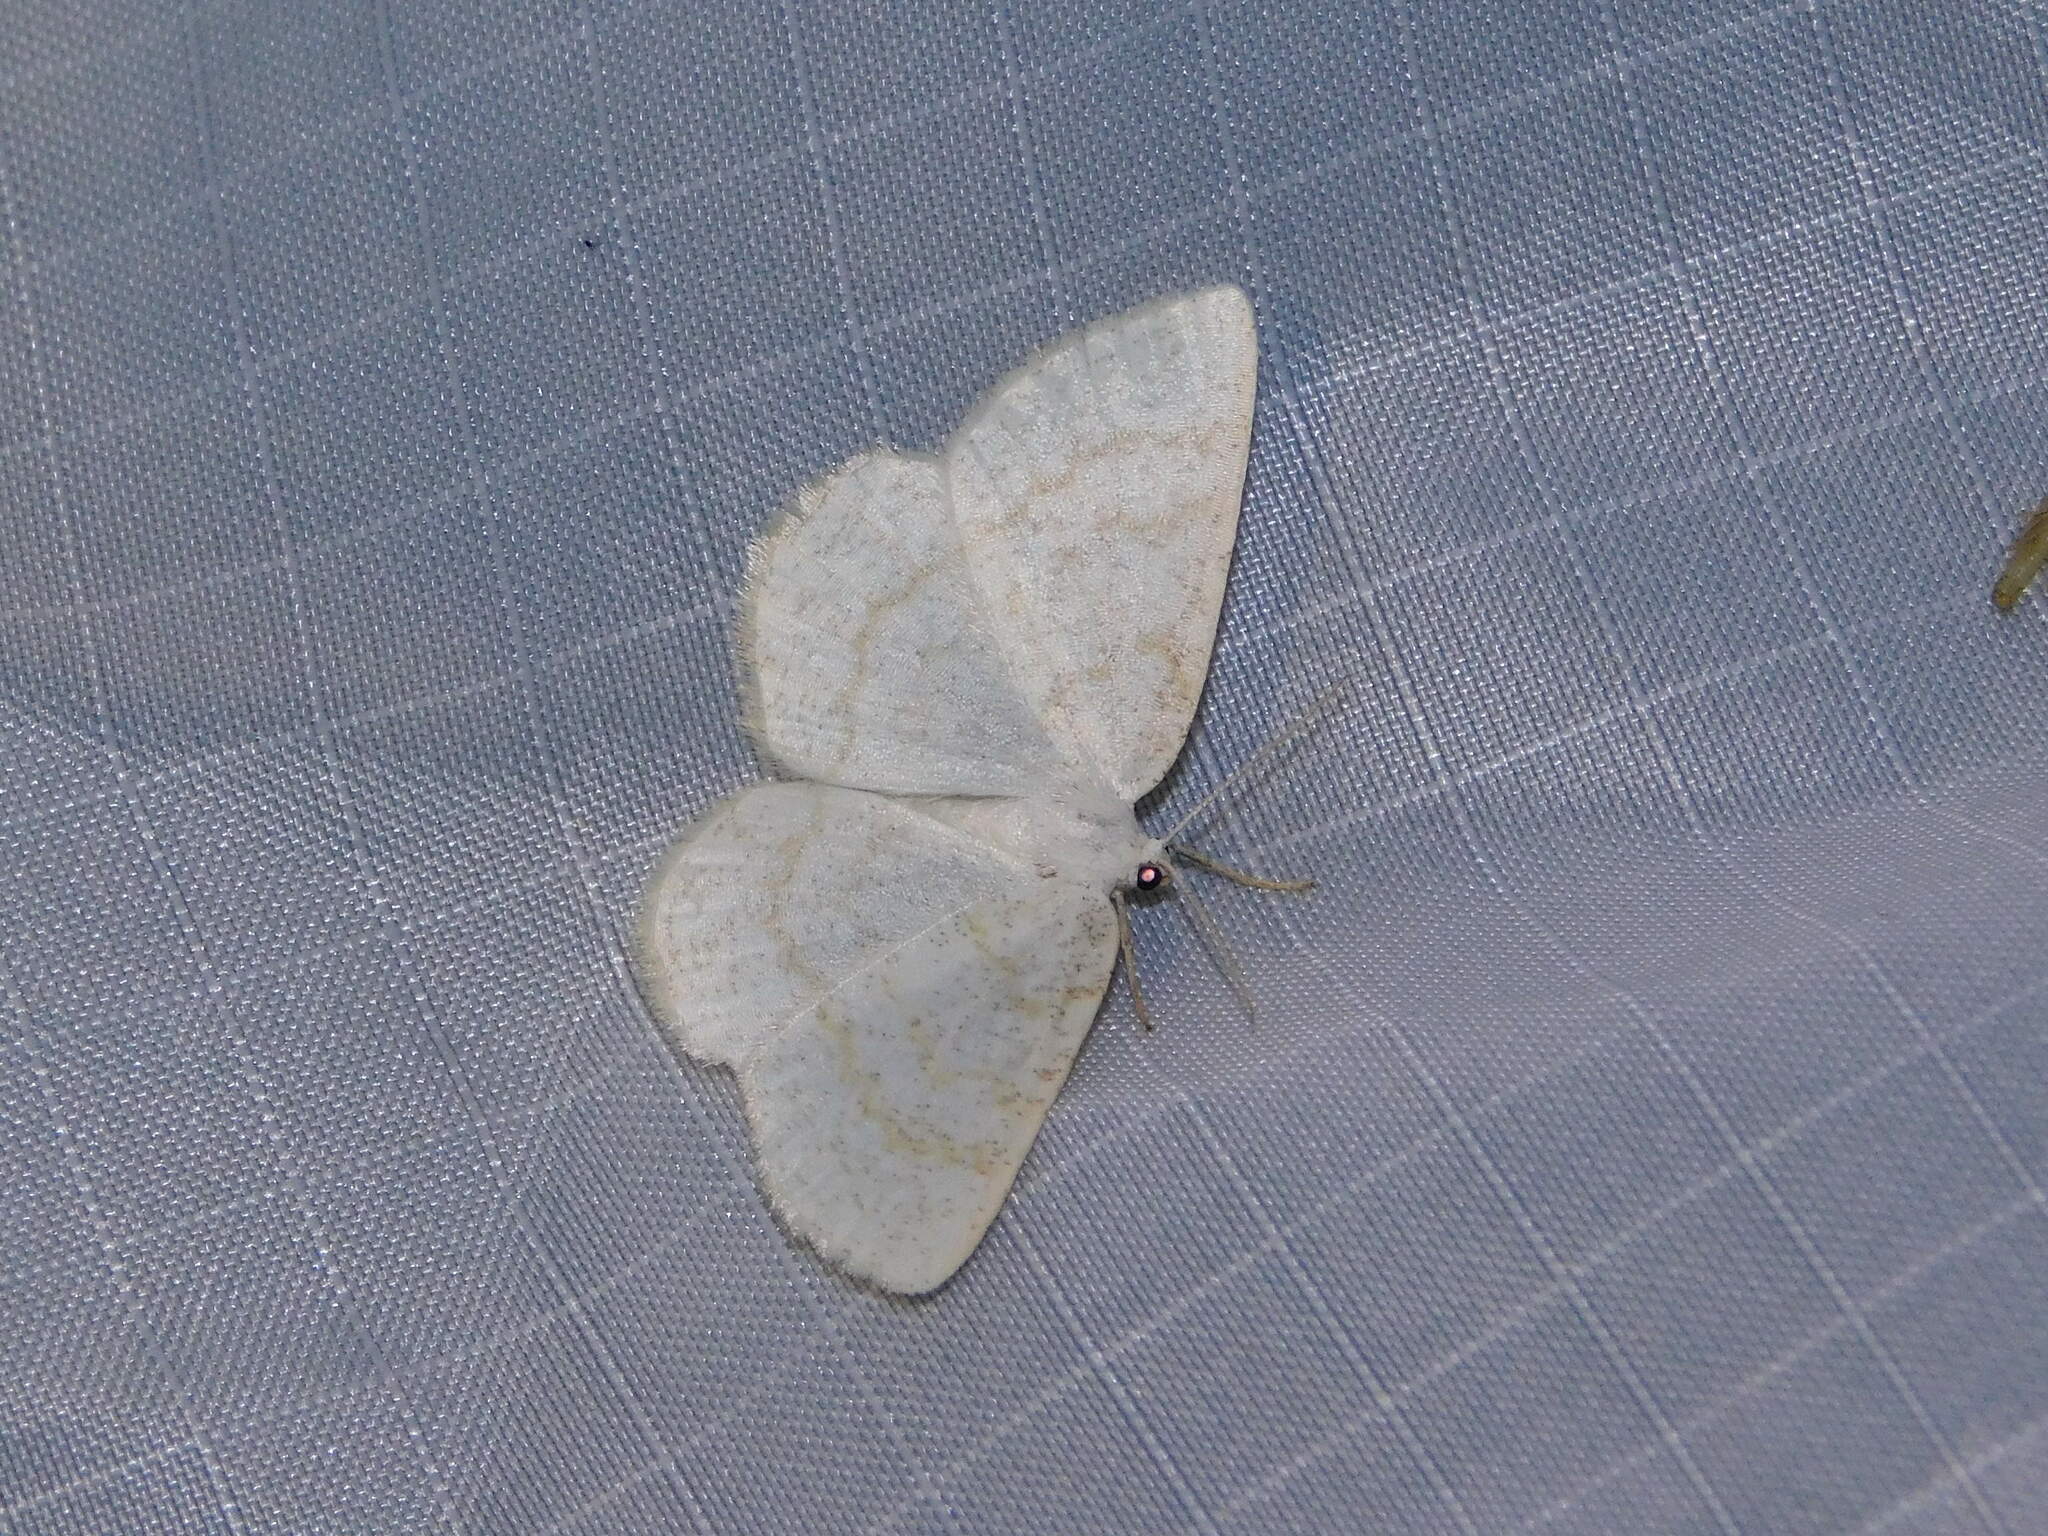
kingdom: Animalia
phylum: Arthropoda
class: Insecta
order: Lepidoptera
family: Geometridae
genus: Cabera
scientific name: Cabera exanthemata
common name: Common wave
